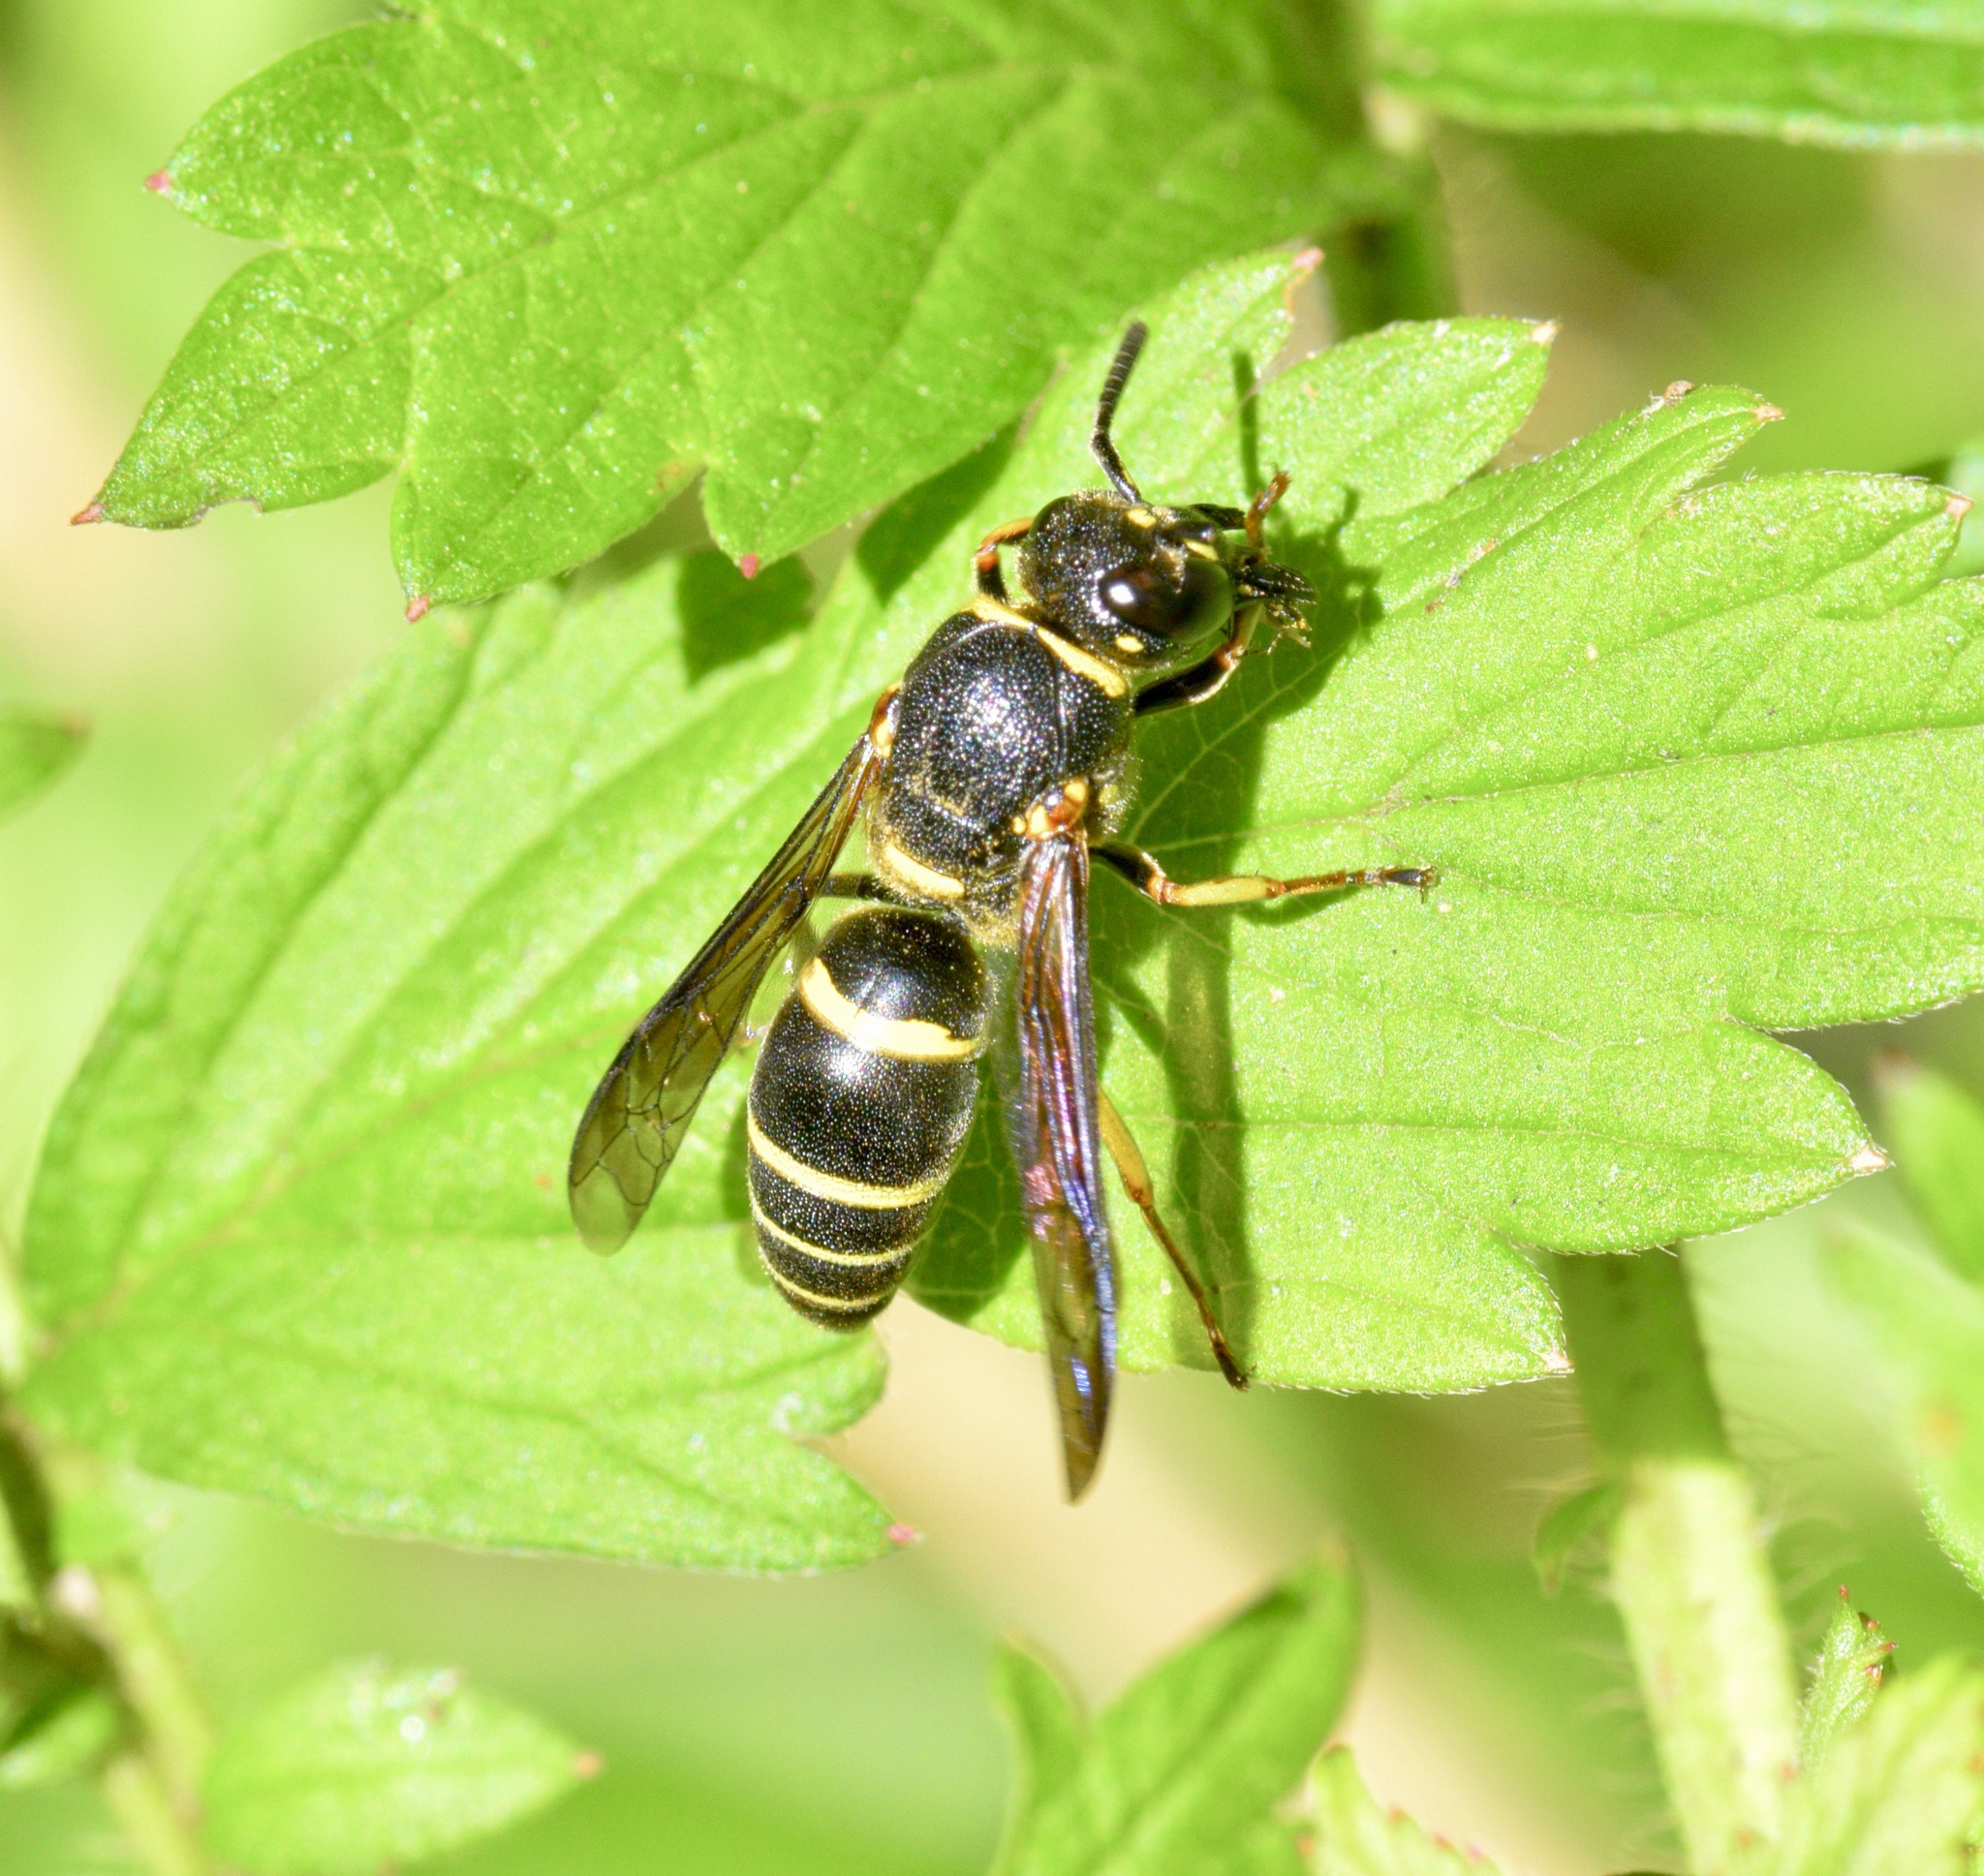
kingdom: Animalia
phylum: Arthropoda
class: Insecta
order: Hymenoptera
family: Eumenidae
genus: Euodynerus
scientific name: Euodynerus foraminatus
